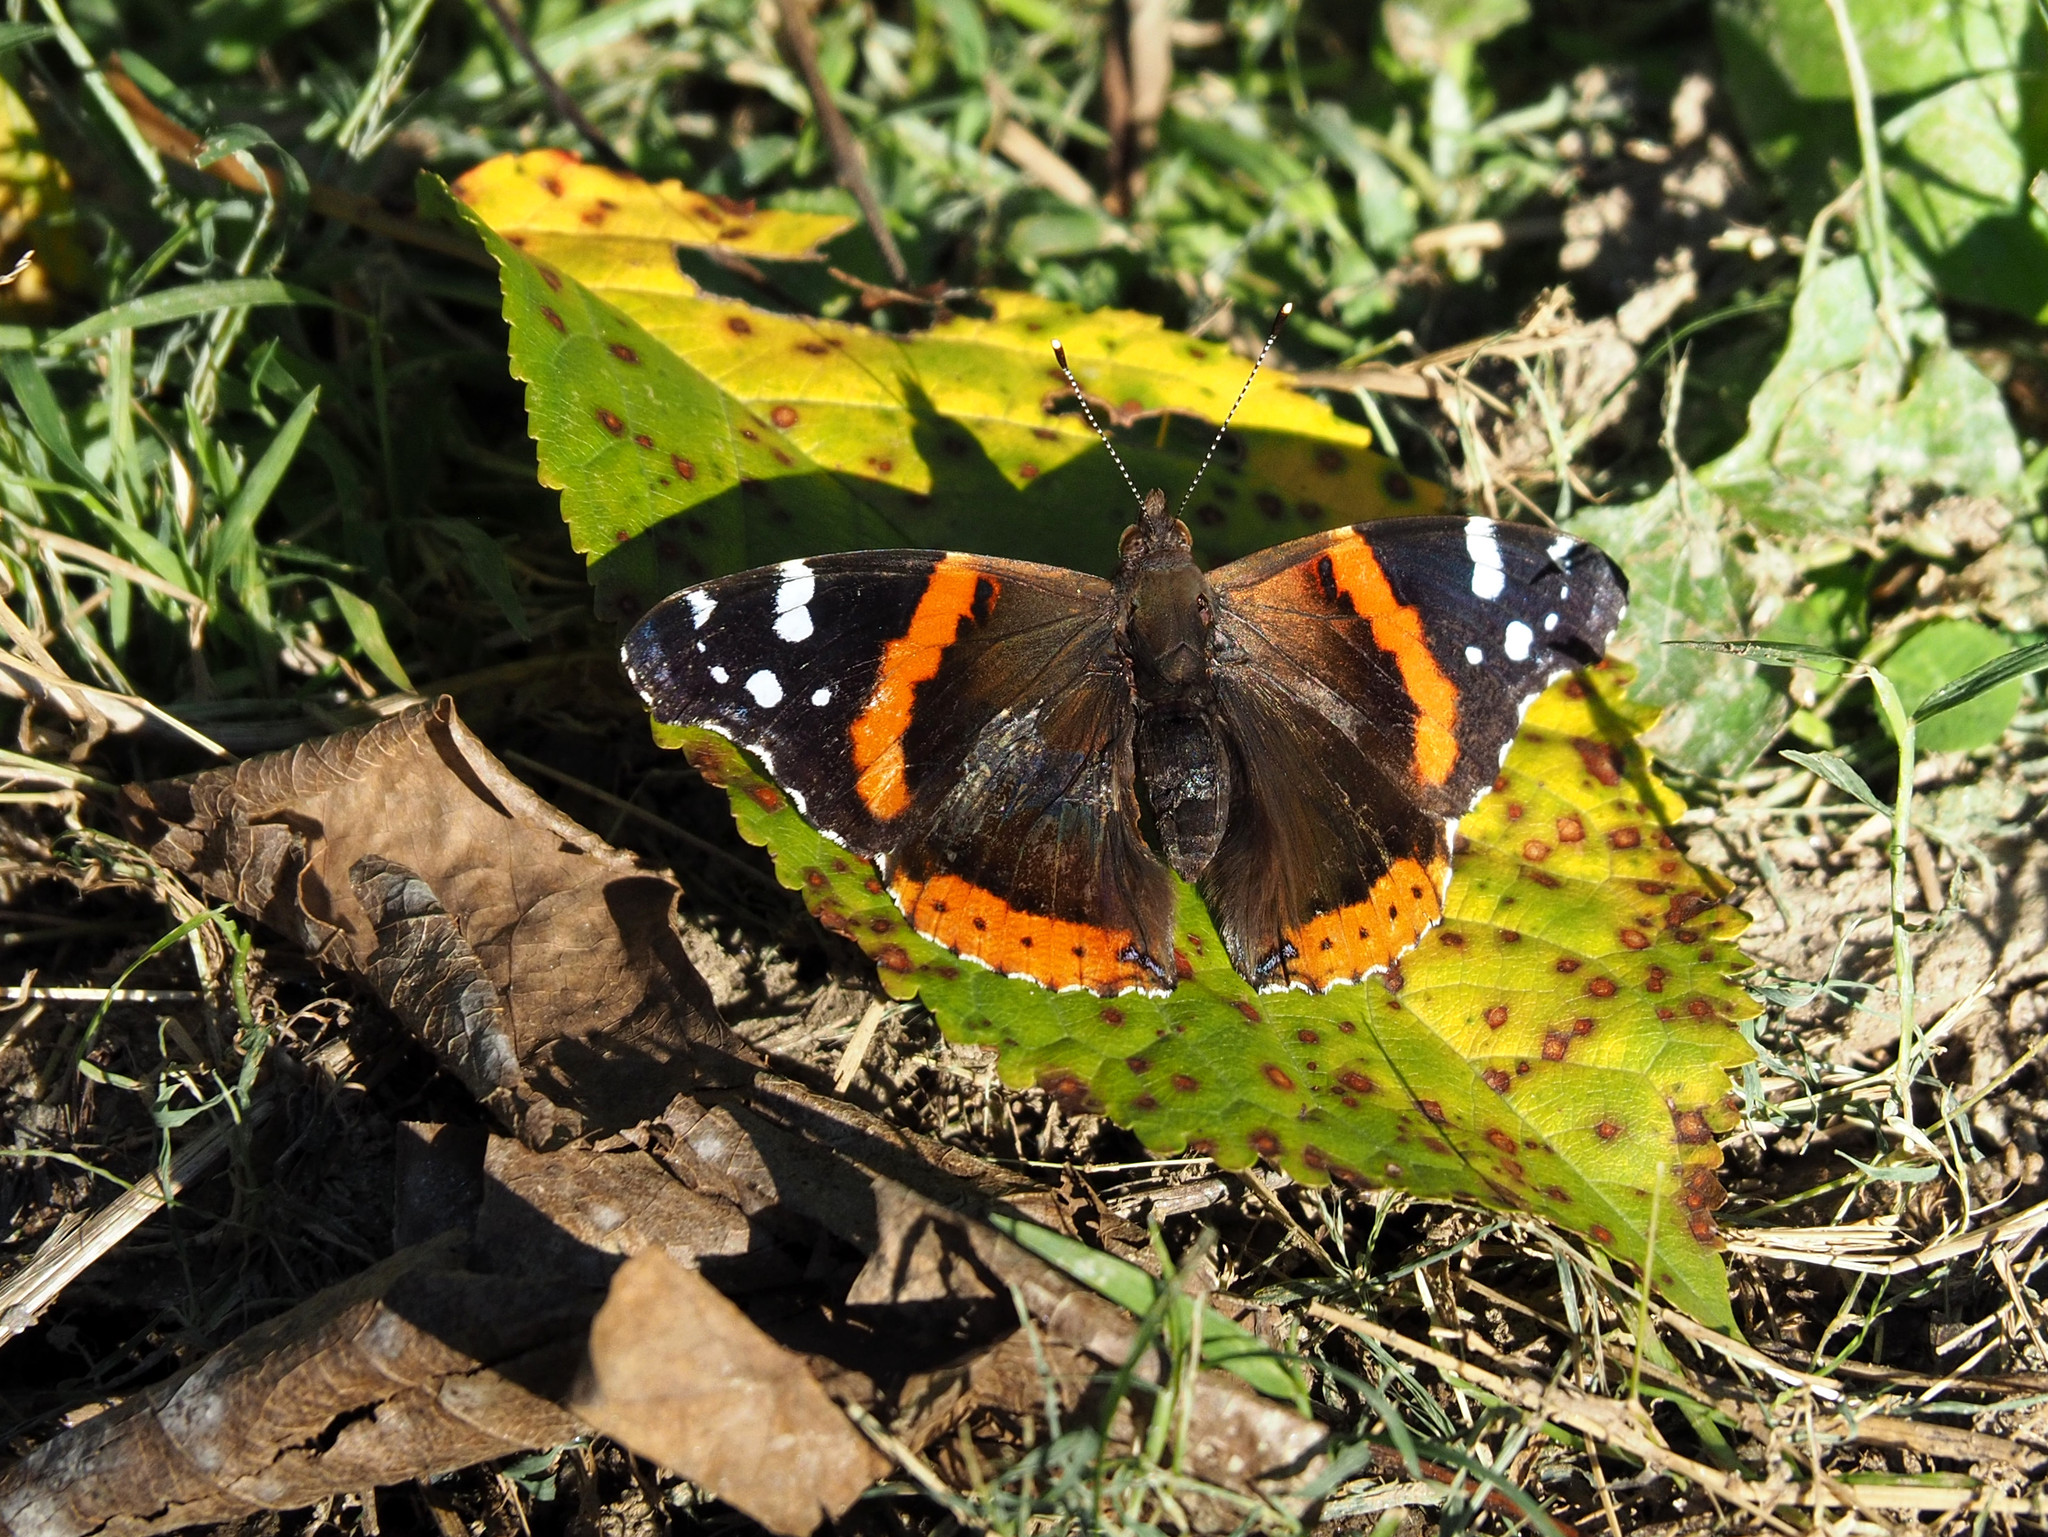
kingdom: Animalia
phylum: Arthropoda
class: Insecta
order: Lepidoptera
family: Nymphalidae
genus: Vanessa
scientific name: Vanessa atalanta
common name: Red admiral
